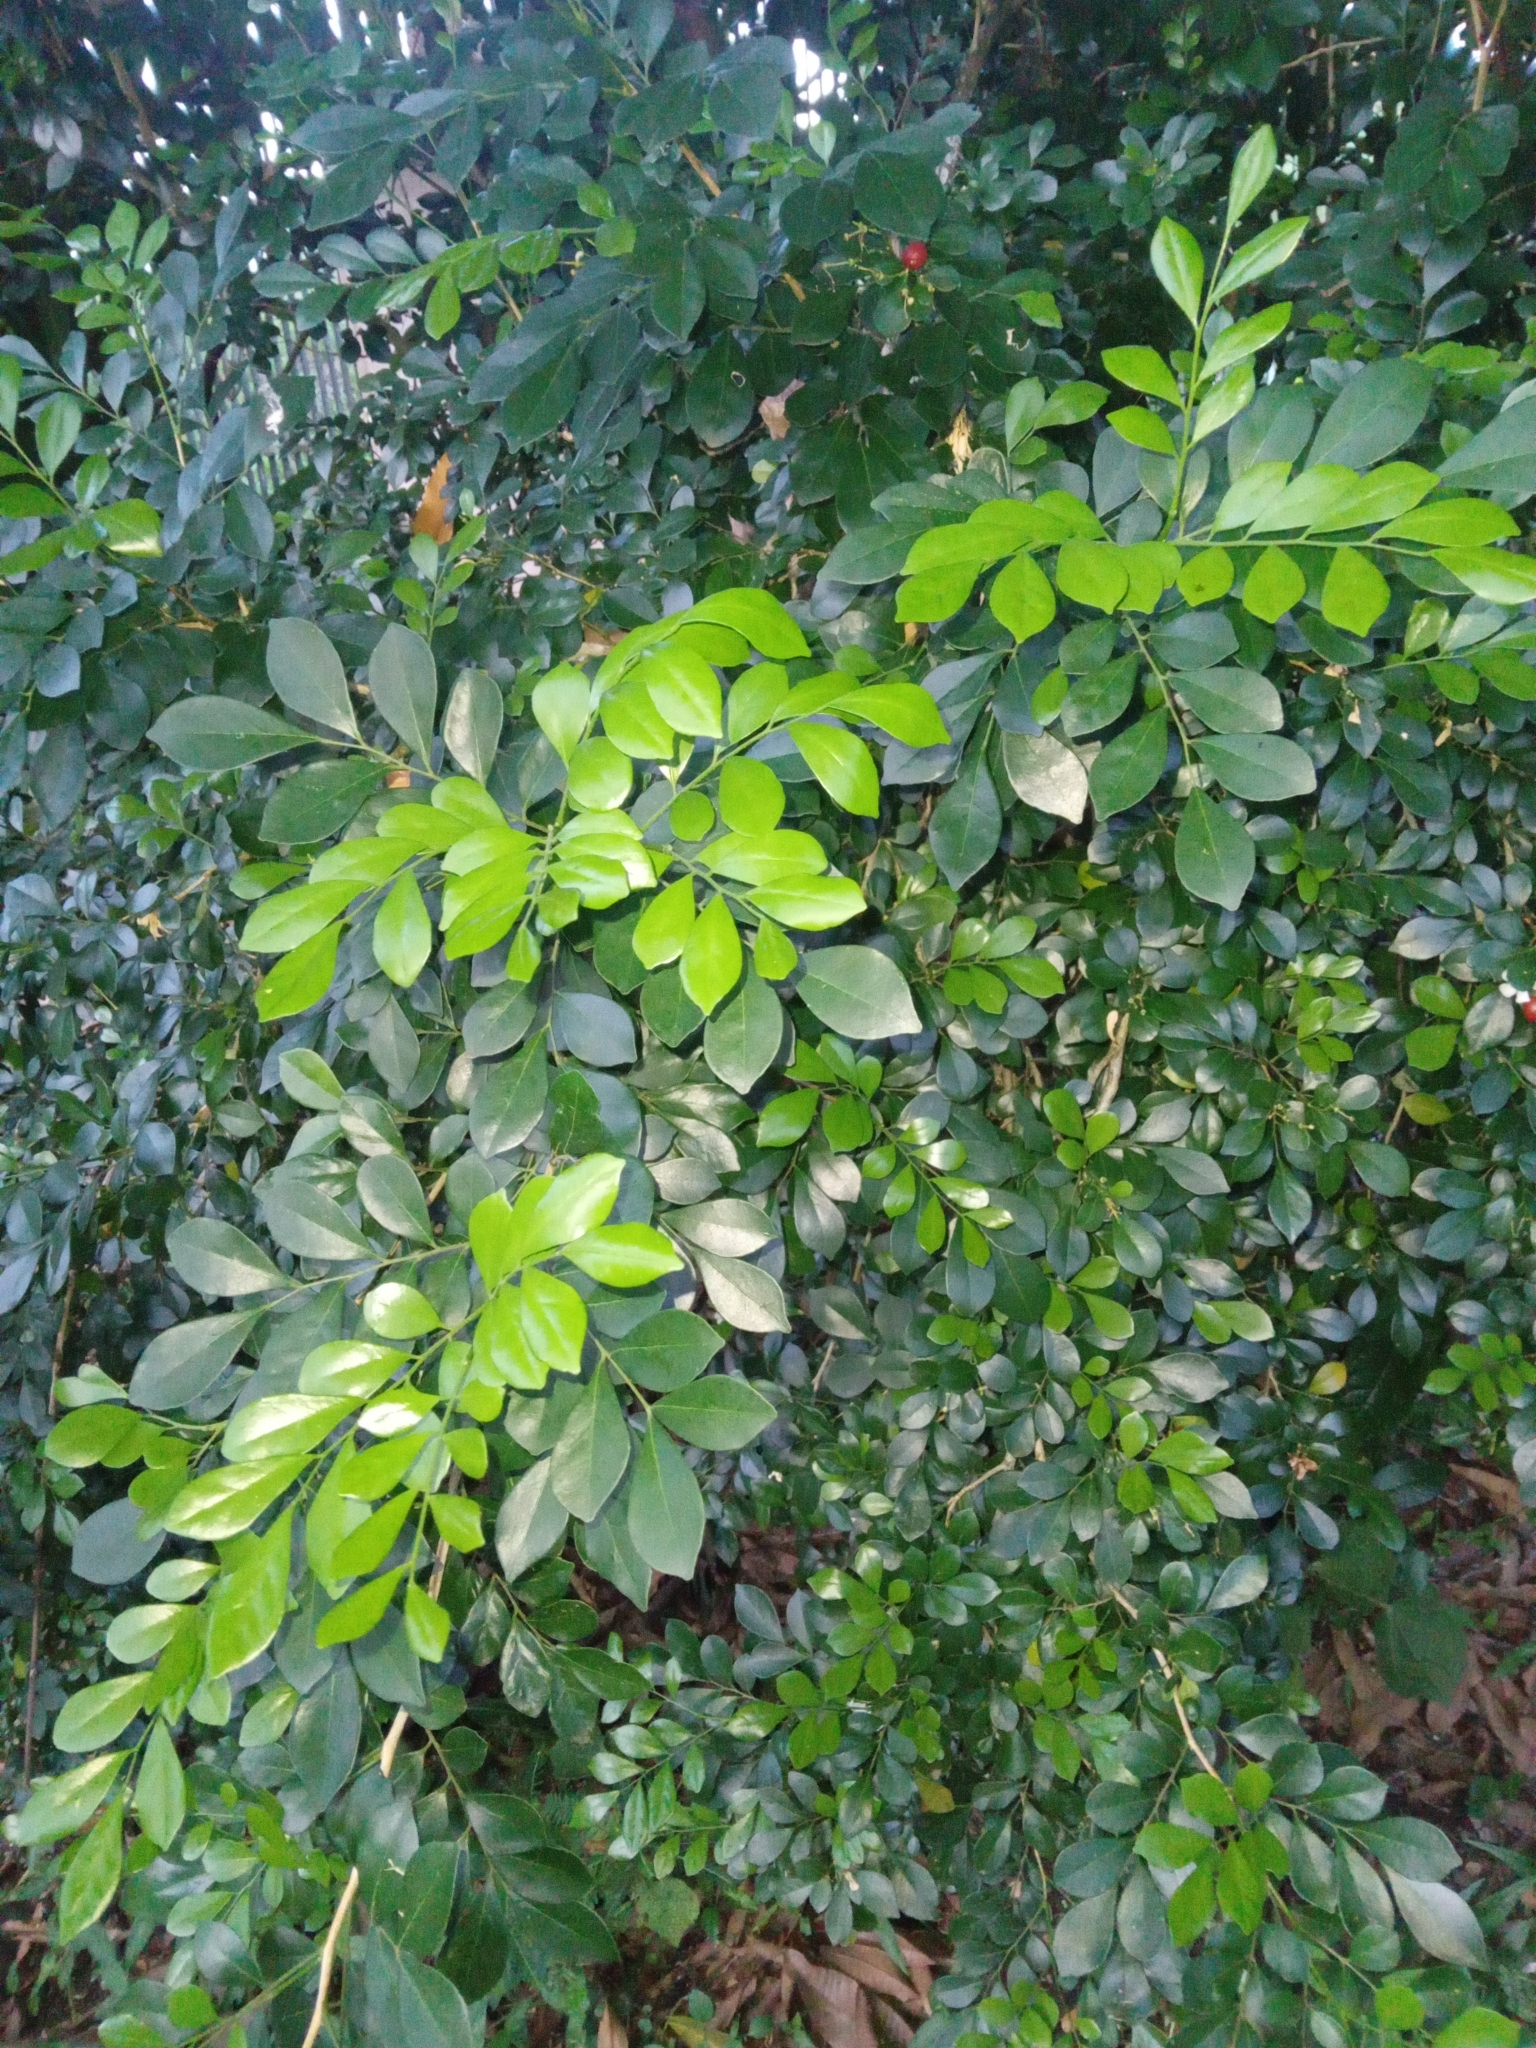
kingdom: Plantae
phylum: Tracheophyta
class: Magnoliopsida
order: Sapindales
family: Rutaceae
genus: Murraya
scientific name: Murraya paniculata
